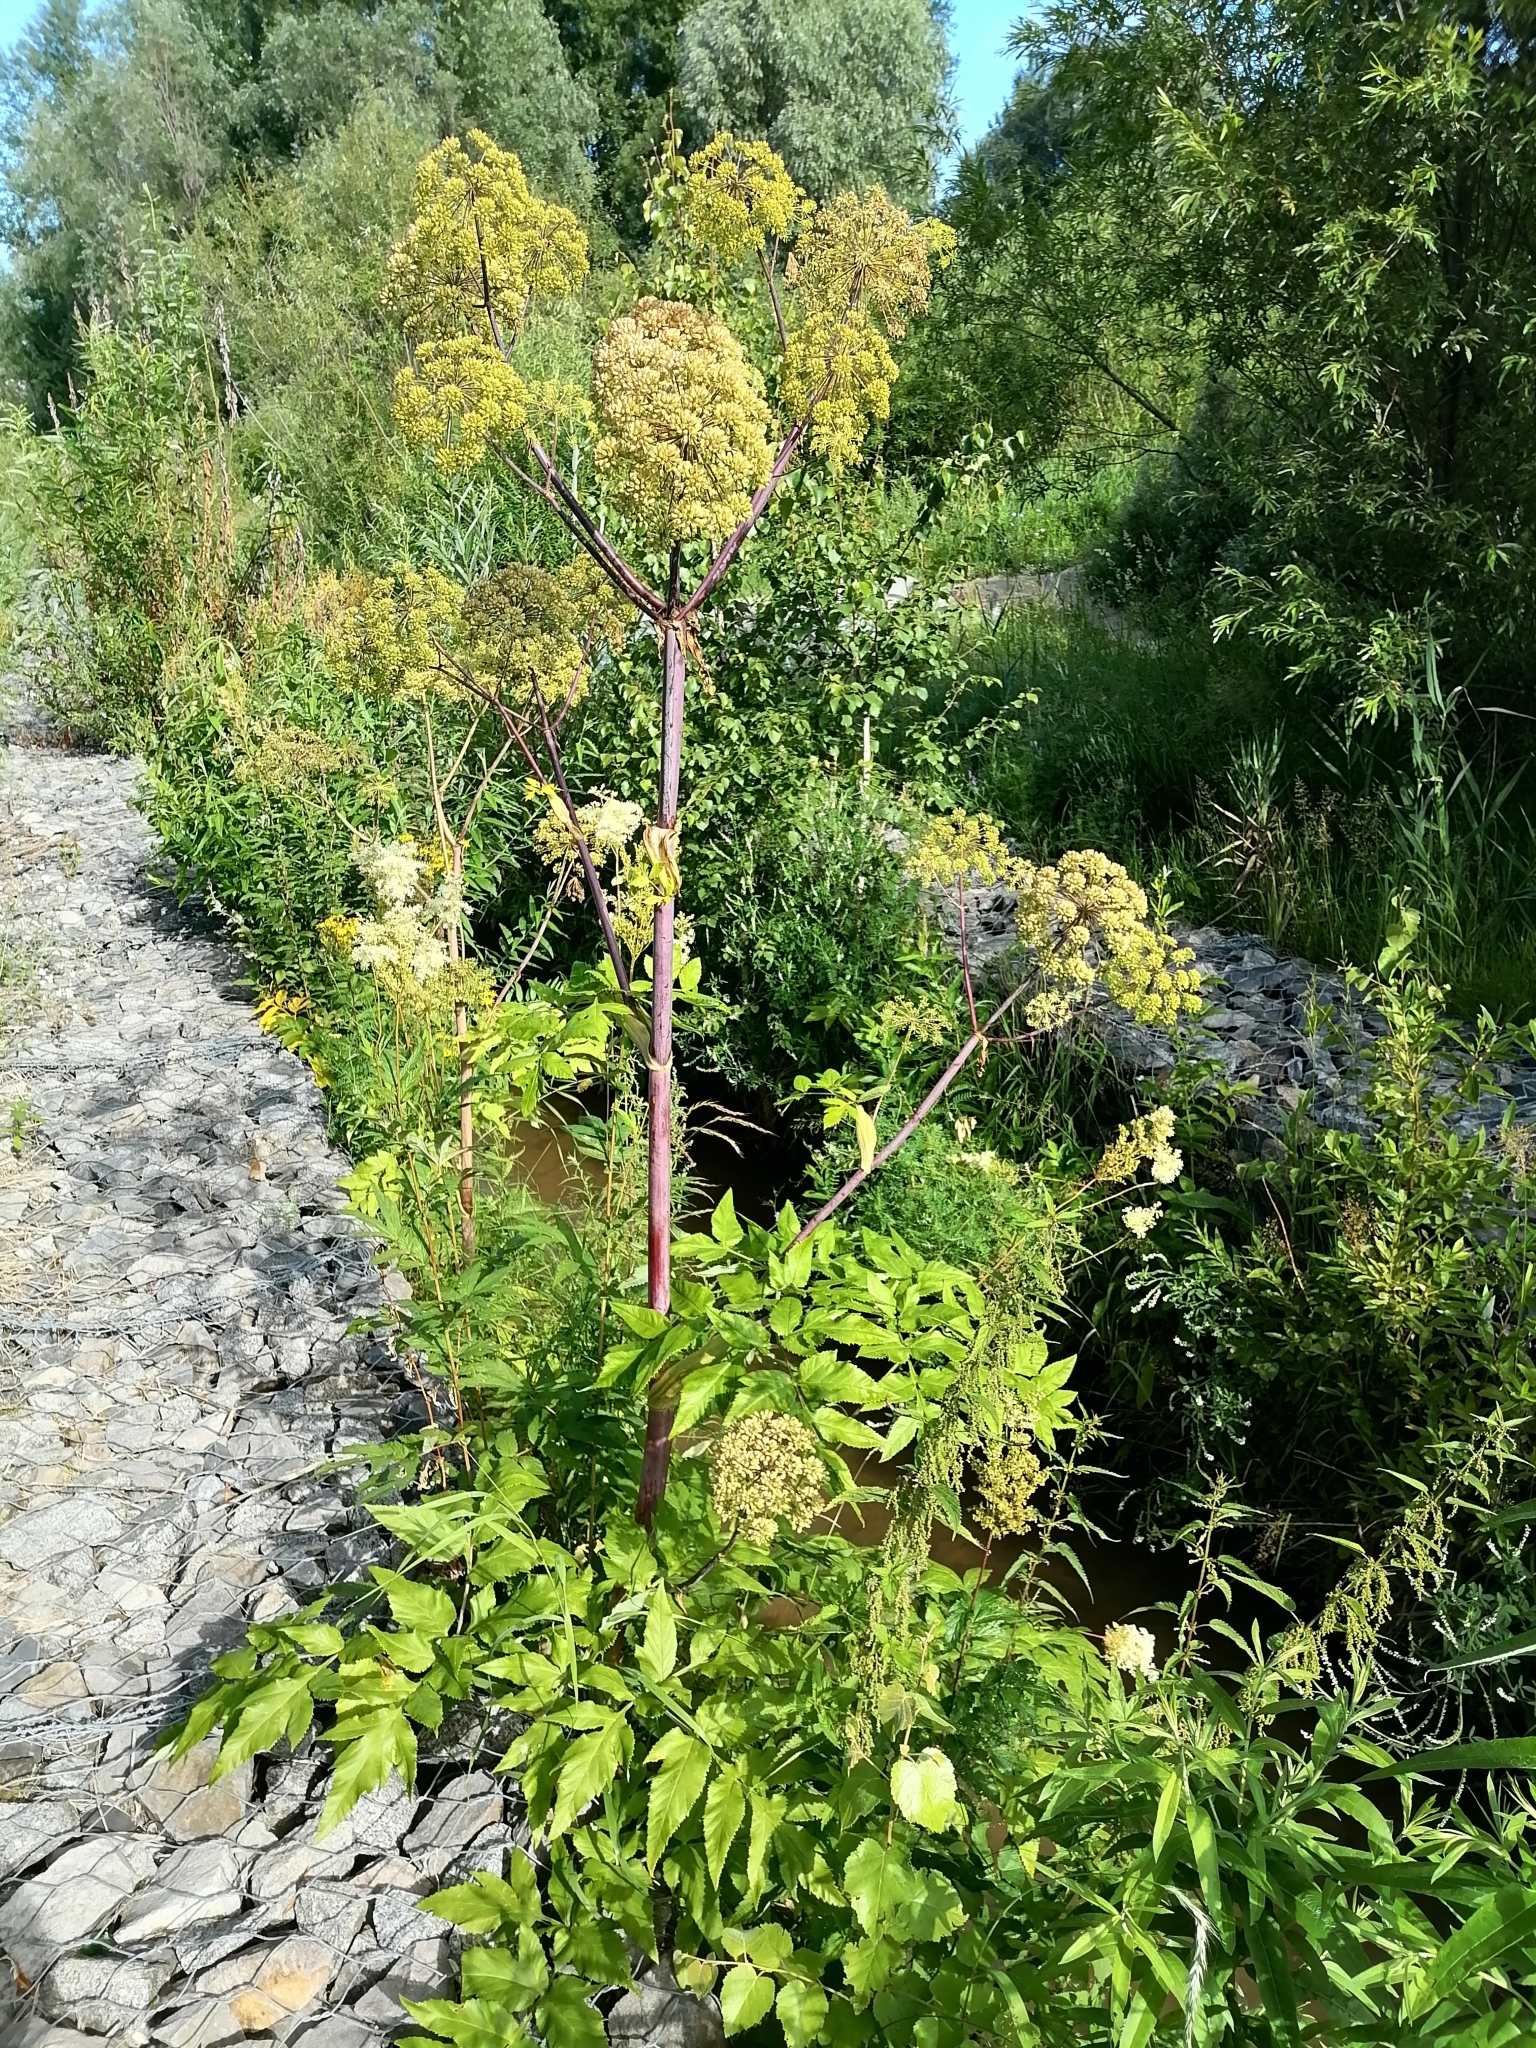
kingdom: Plantae
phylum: Tracheophyta
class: Magnoliopsida
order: Apiales
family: Apiaceae
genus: Angelica
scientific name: Angelica decurrens
